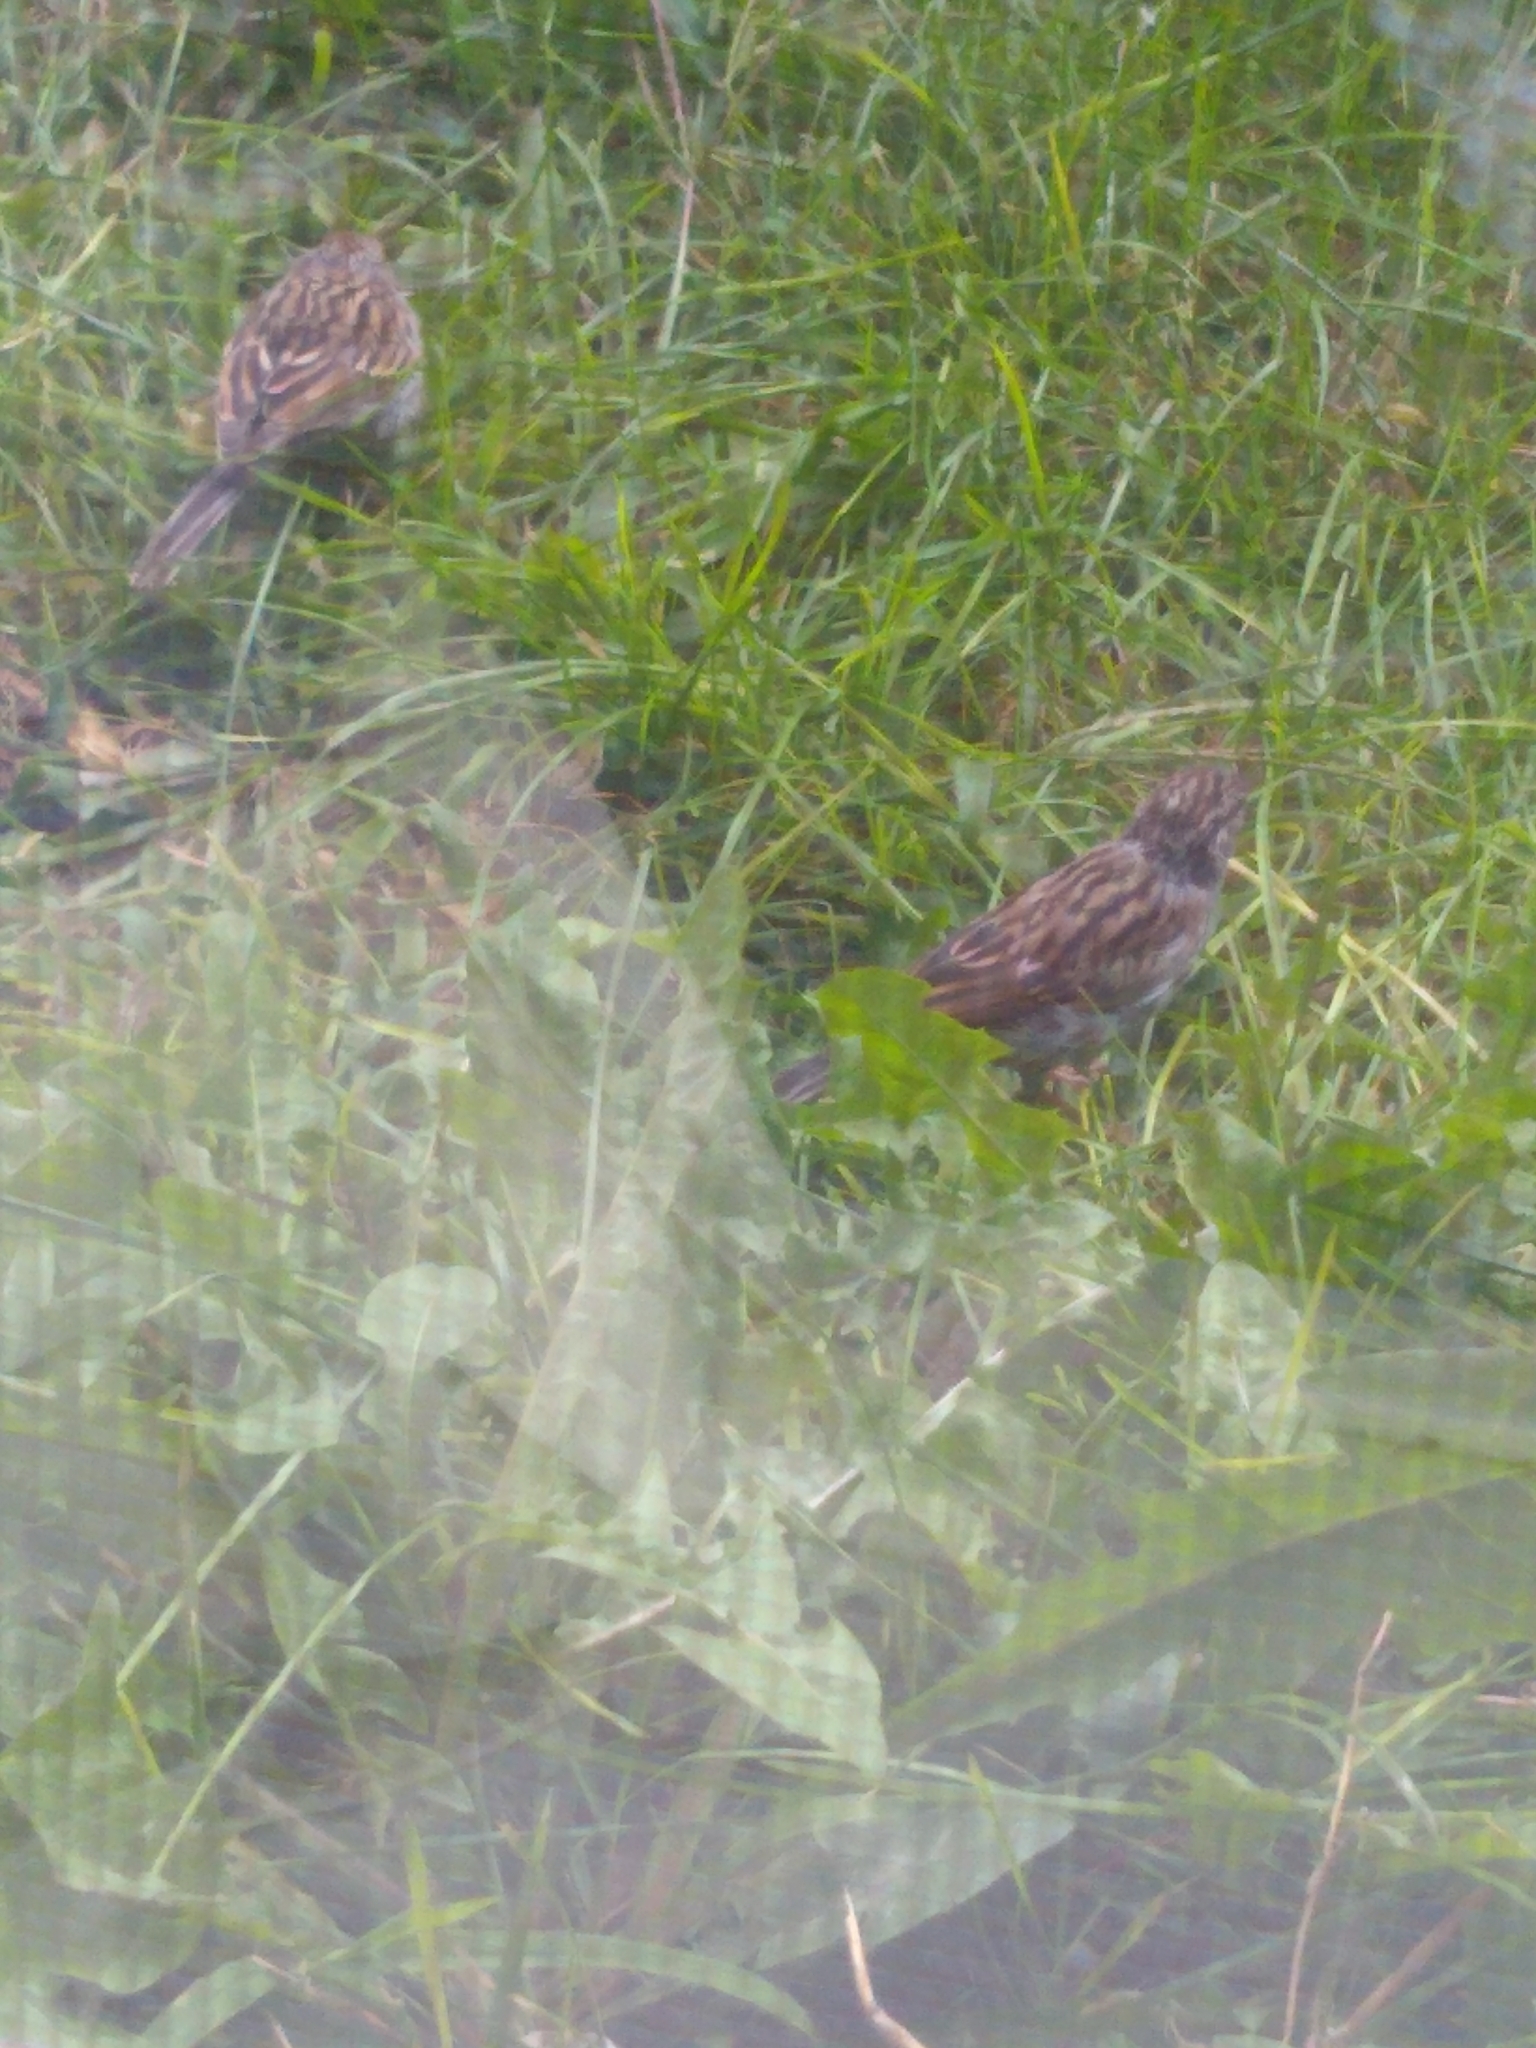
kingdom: Animalia
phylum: Chordata
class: Aves
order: Passeriformes
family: Passerellidae
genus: Spizella
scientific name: Spizella passerina
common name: Chipping sparrow
